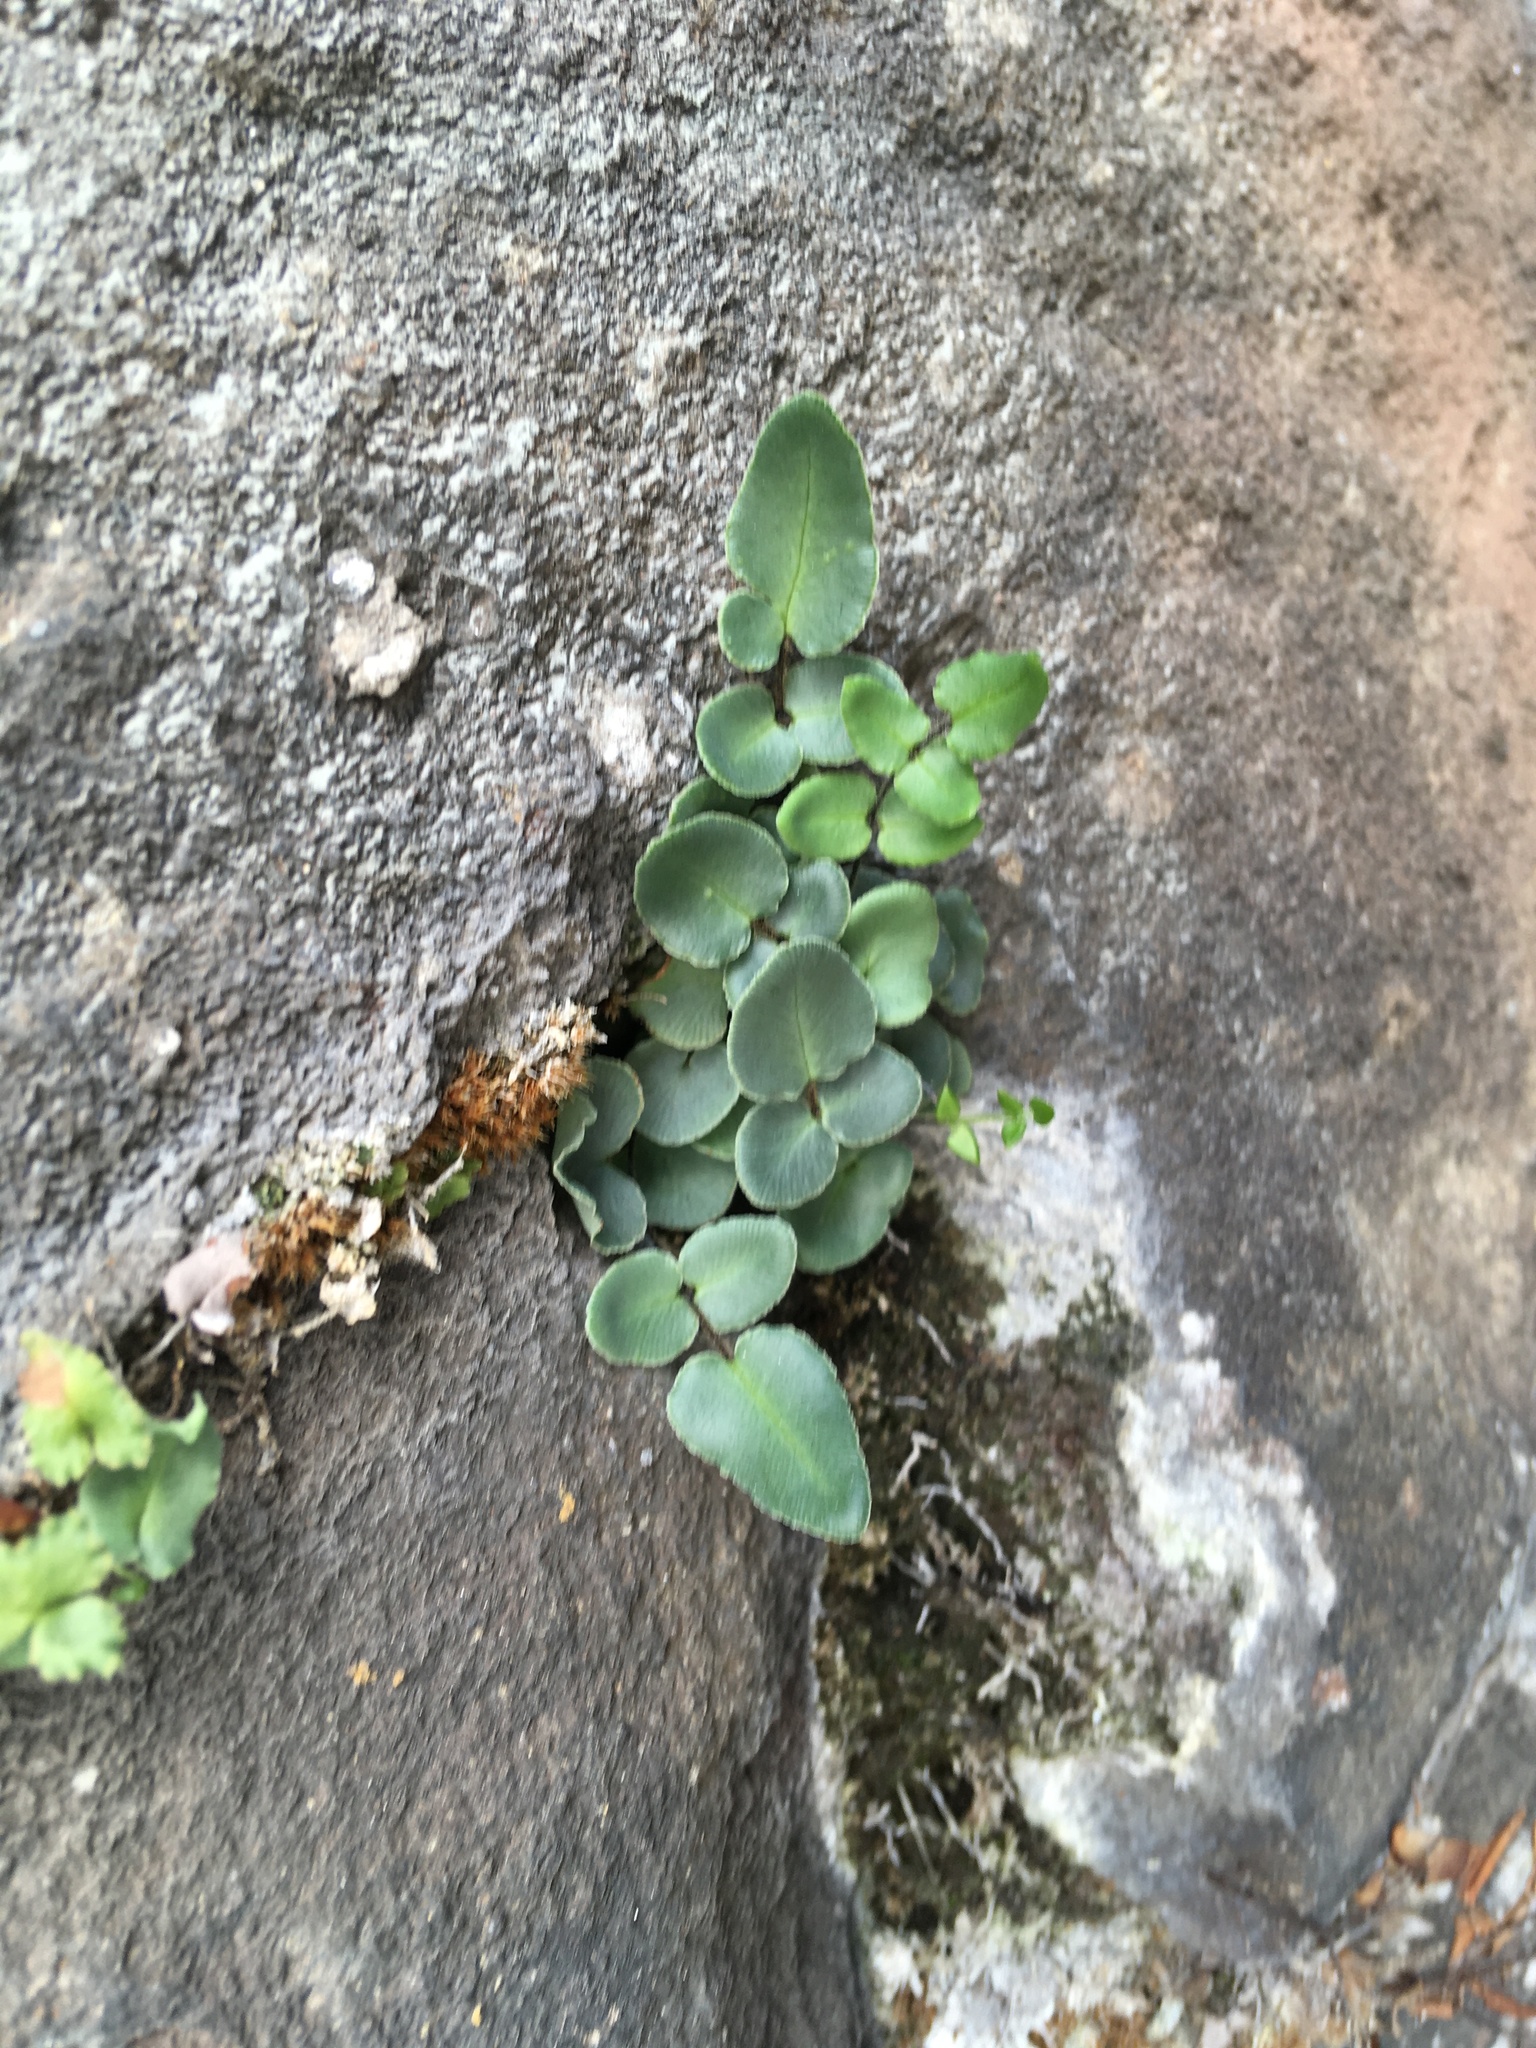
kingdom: Plantae
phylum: Tracheophyta
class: Polypodiopsida
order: Polypodiales
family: Pteridaceae
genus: Pellaea
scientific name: Pellaea atropurpurea
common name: Hairy cliffbrake
